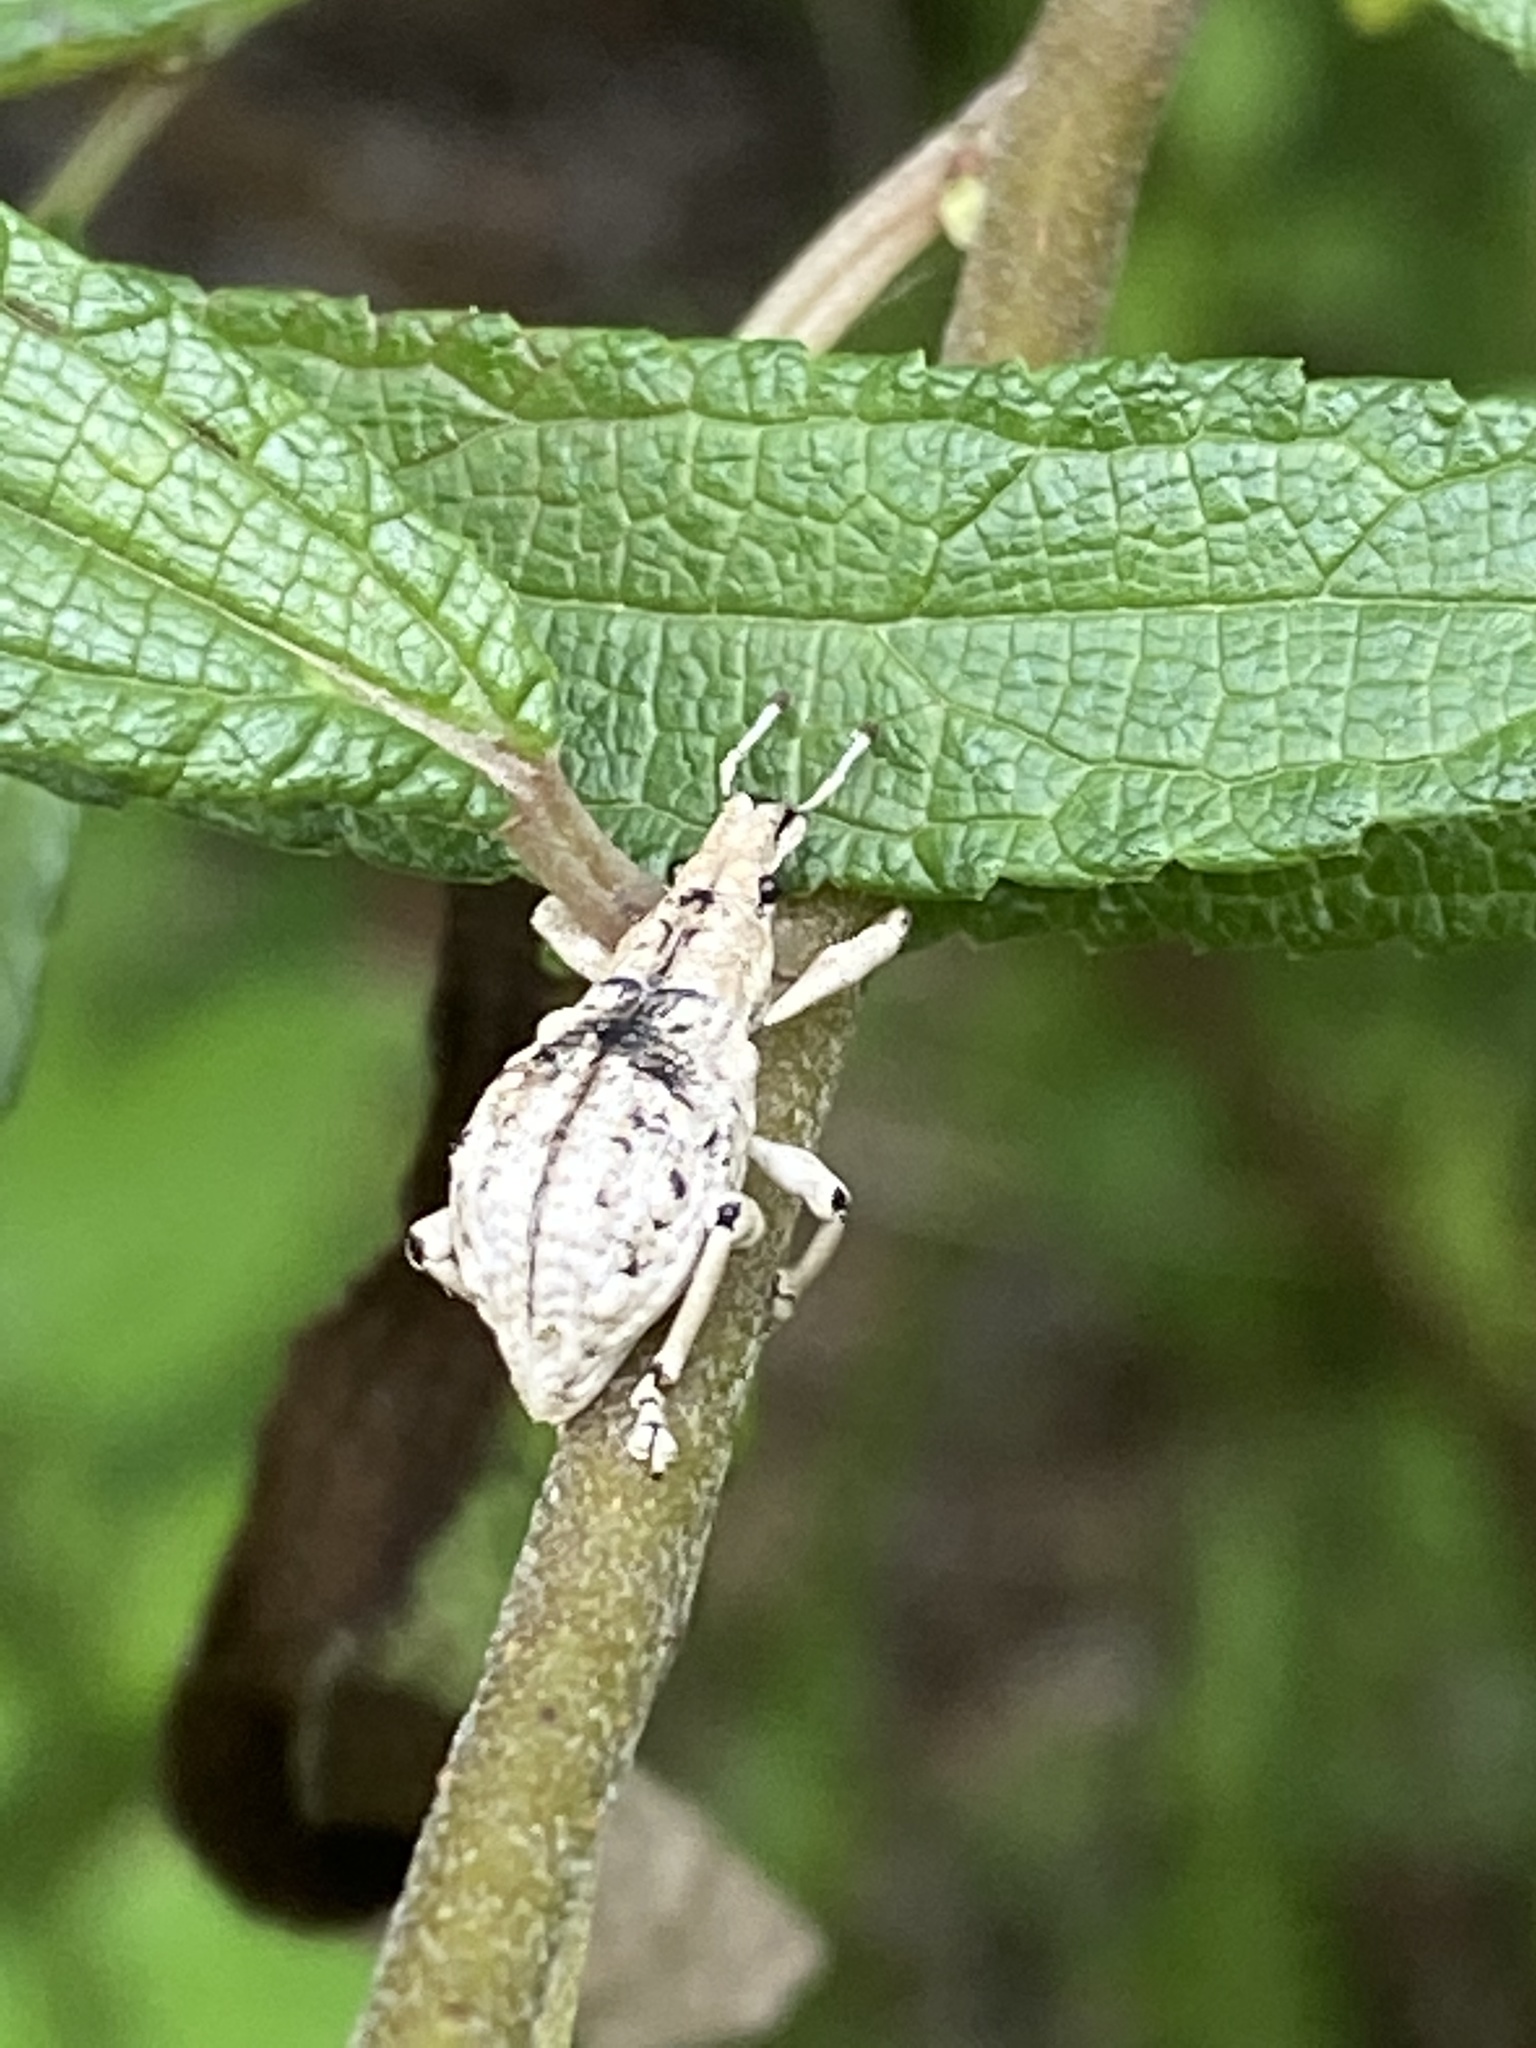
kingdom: Animalia
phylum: Arthropoda
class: Insecta
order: Coleoptera
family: Curculionidae
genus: Dermatoxenus
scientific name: Dermatoxenus caesicollis
